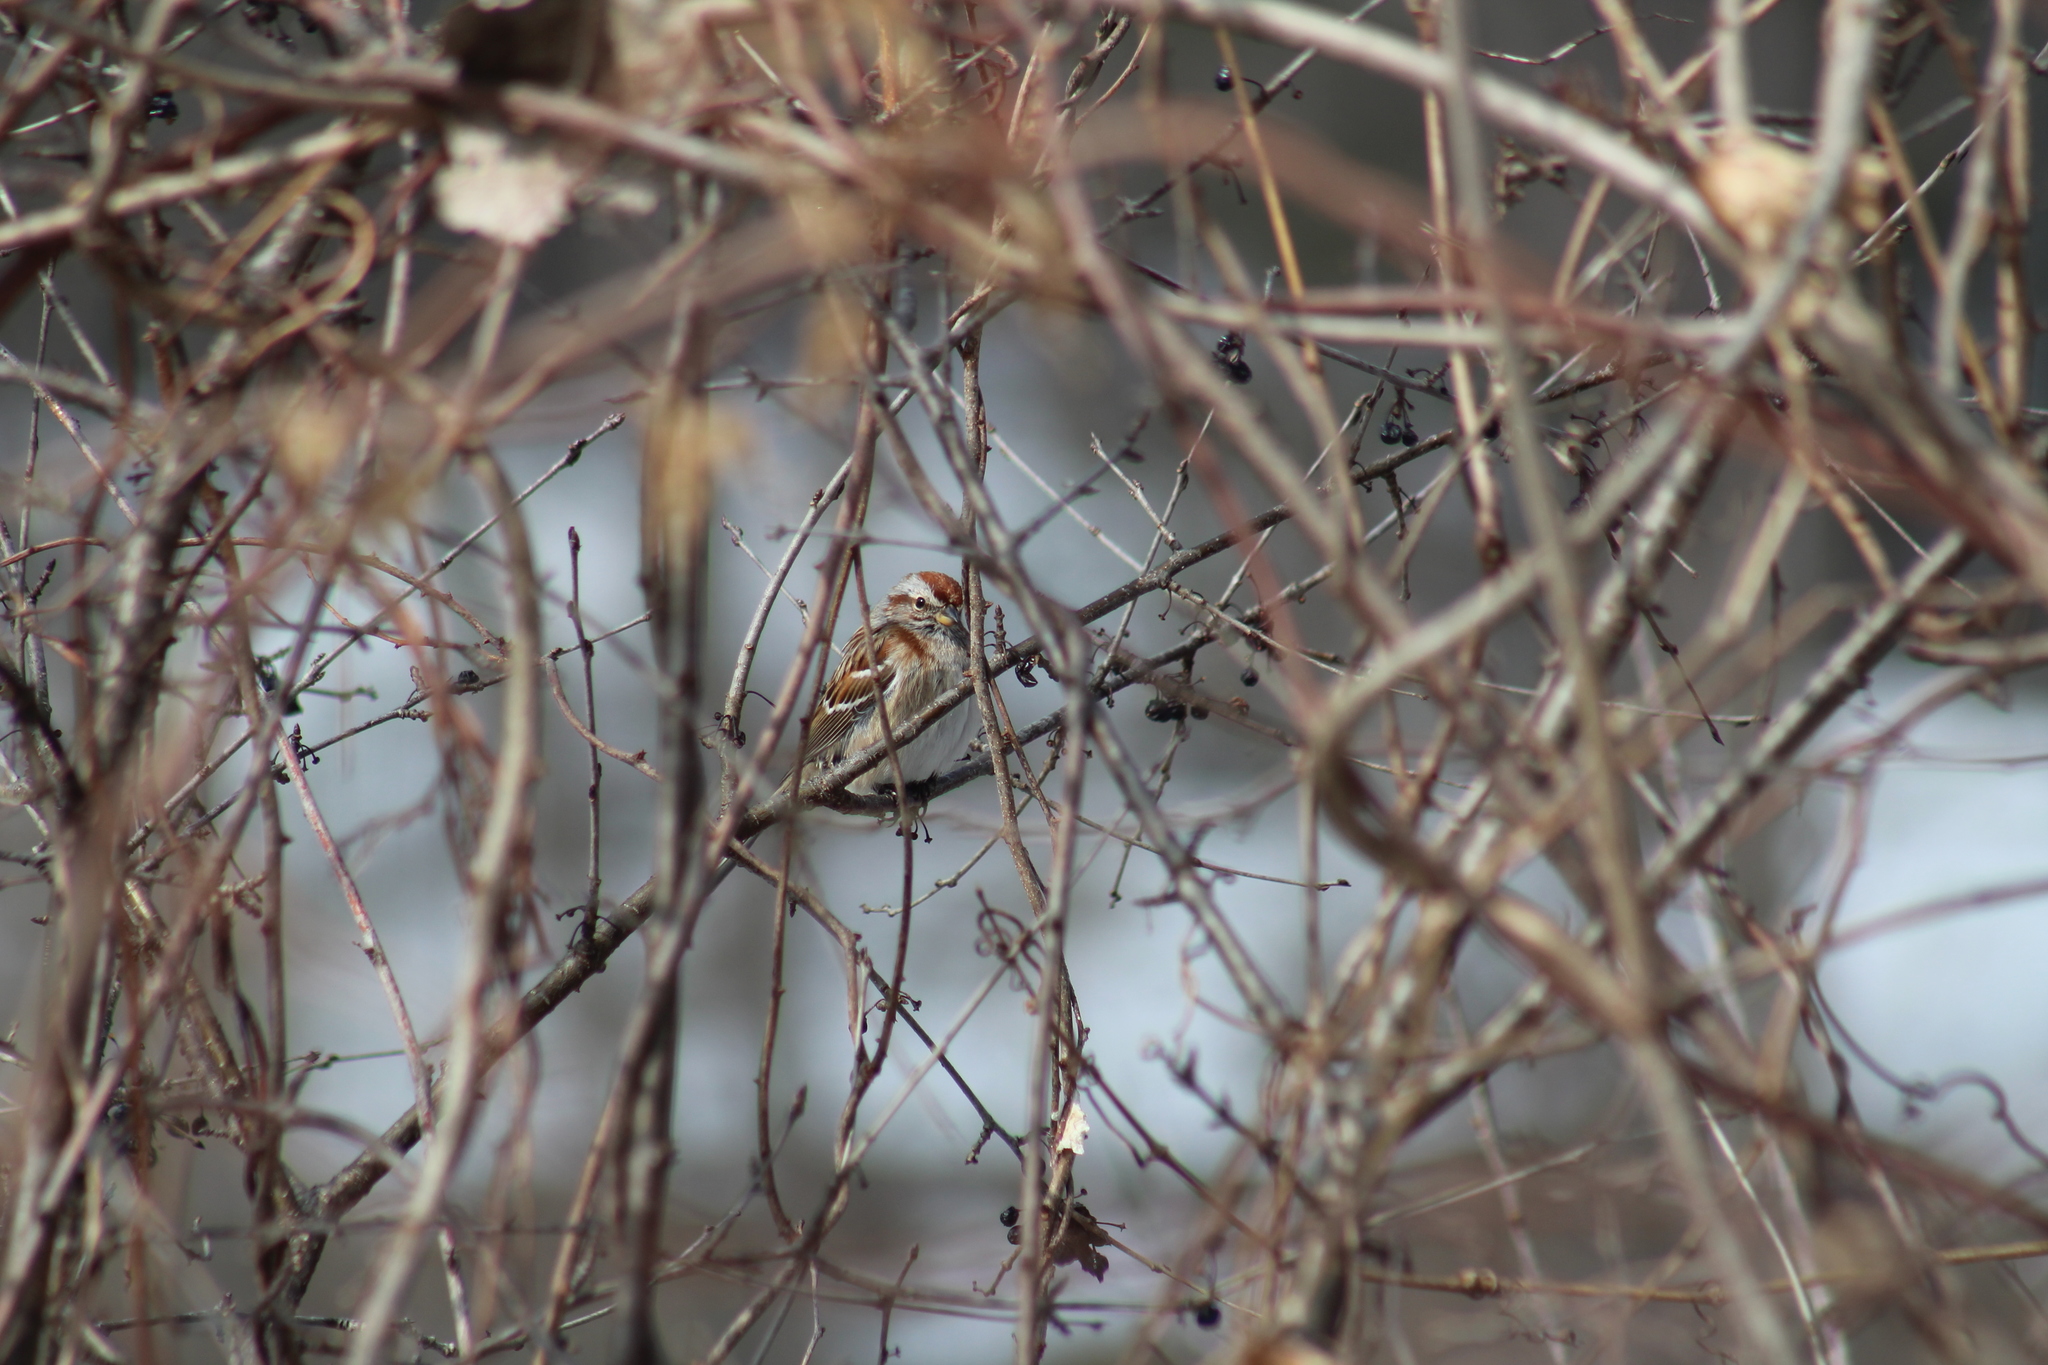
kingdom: Animalia
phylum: Chordata
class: Aves
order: Passeriformes
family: Passerellidae
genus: Spizelloides
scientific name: Spizelloides arborea
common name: American tree sparrow
